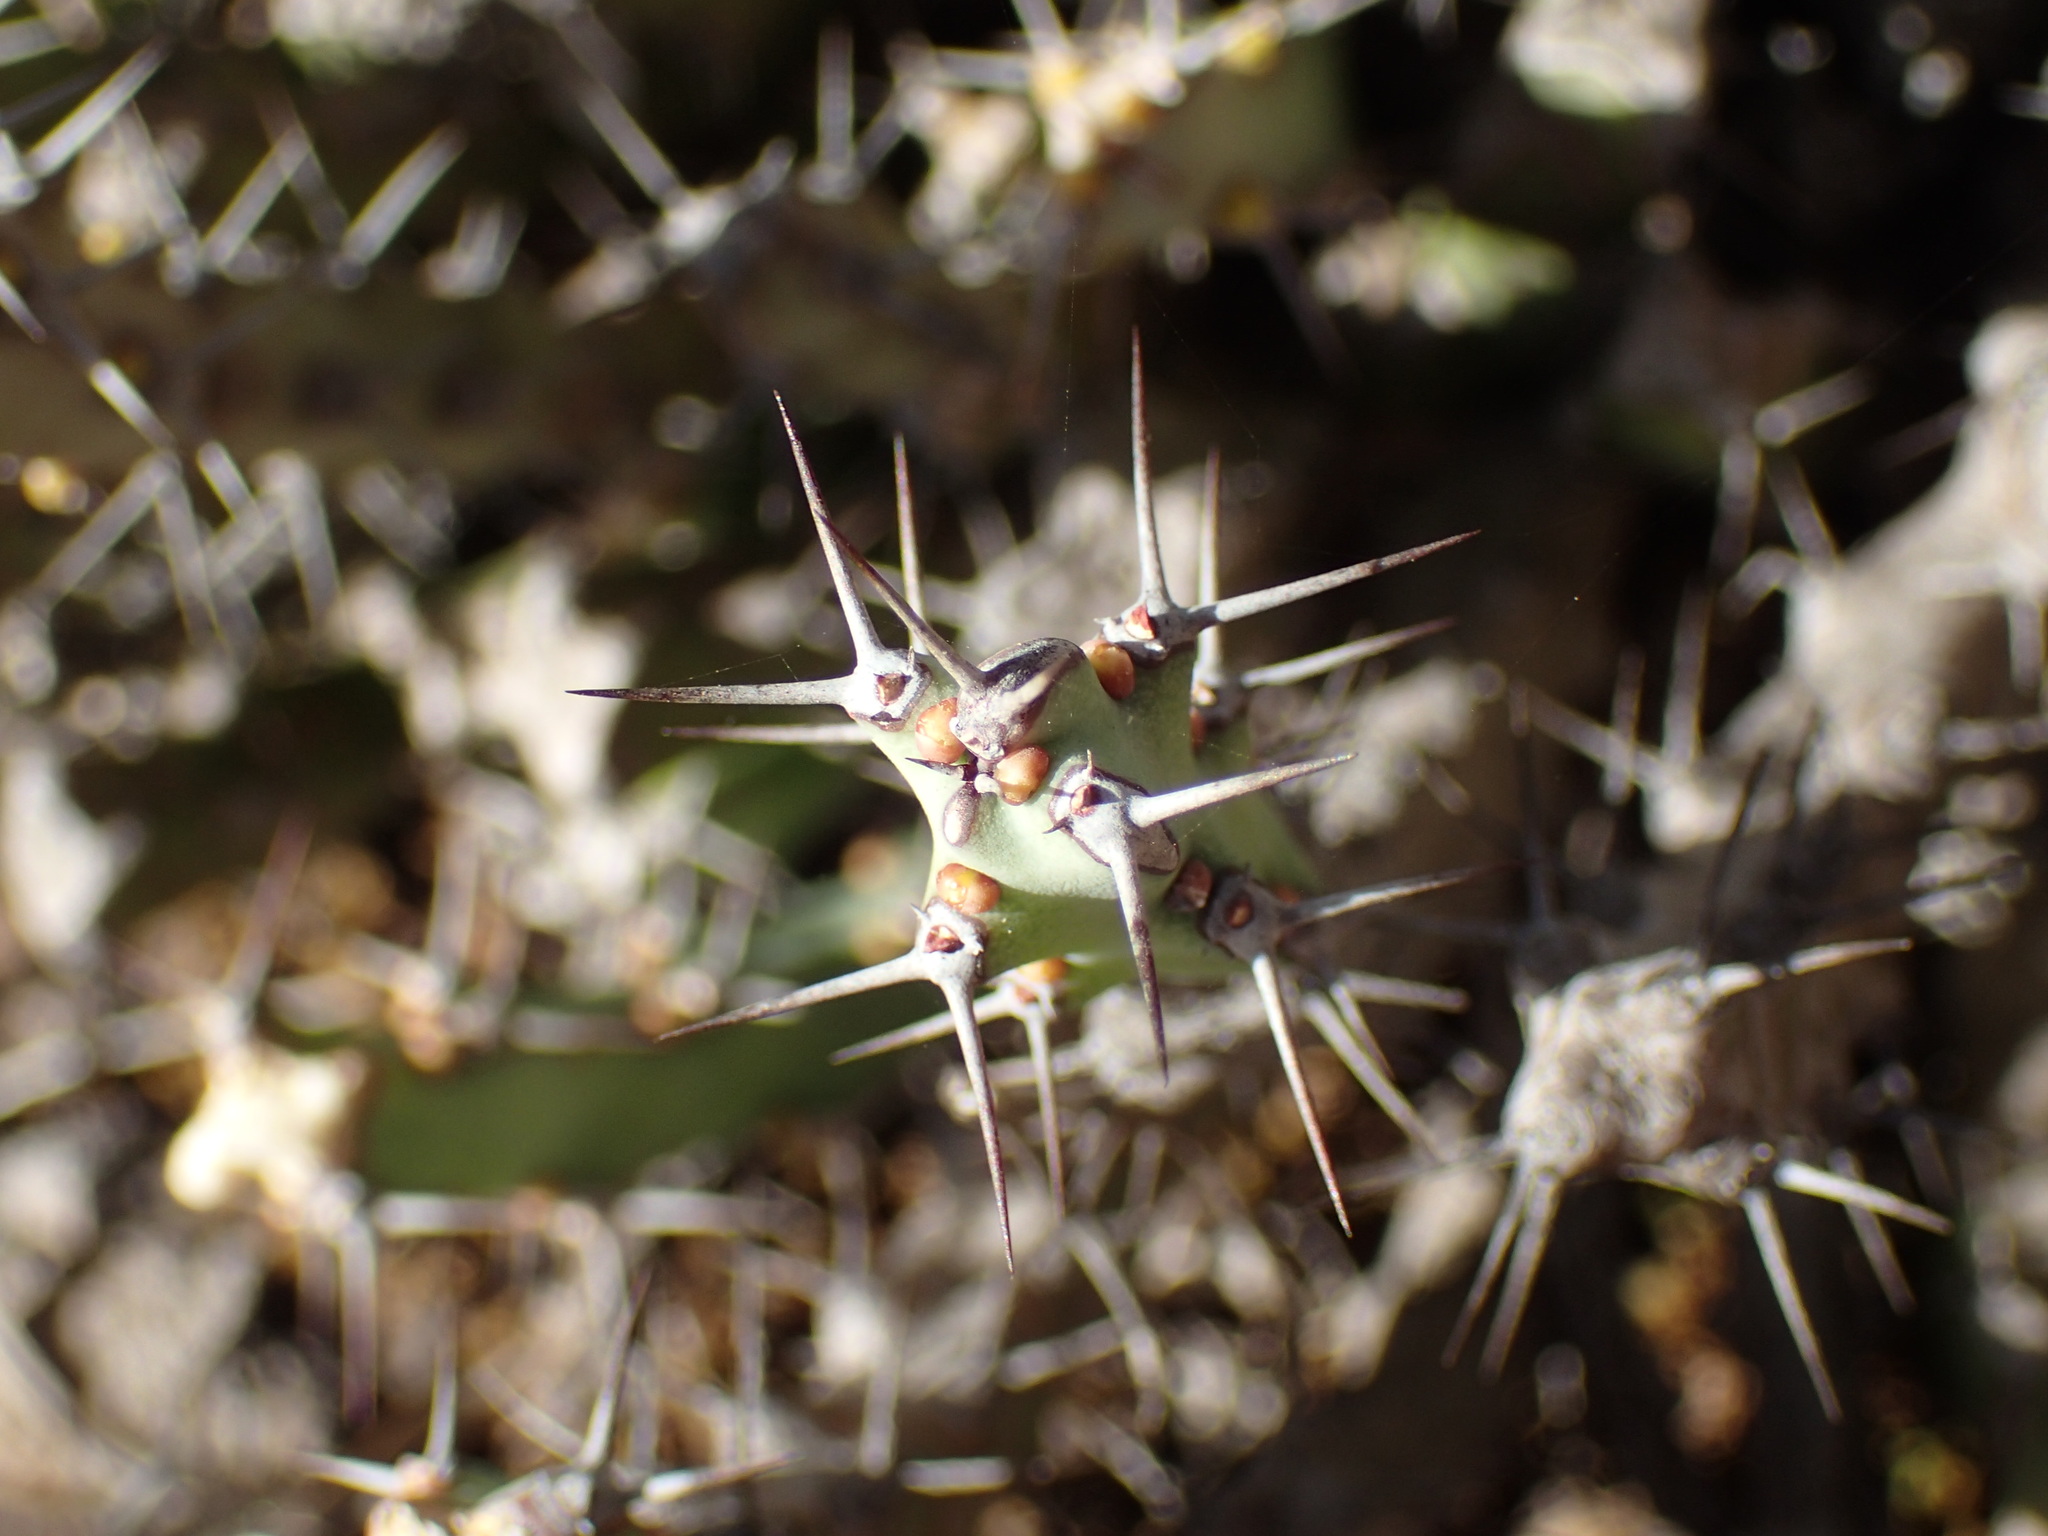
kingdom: Plantae
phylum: Tracheophyta
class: Magnoliopsida
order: Malpighiales
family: Euphorbiaceae
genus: Euphorbia
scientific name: Euphorbia schinzii
